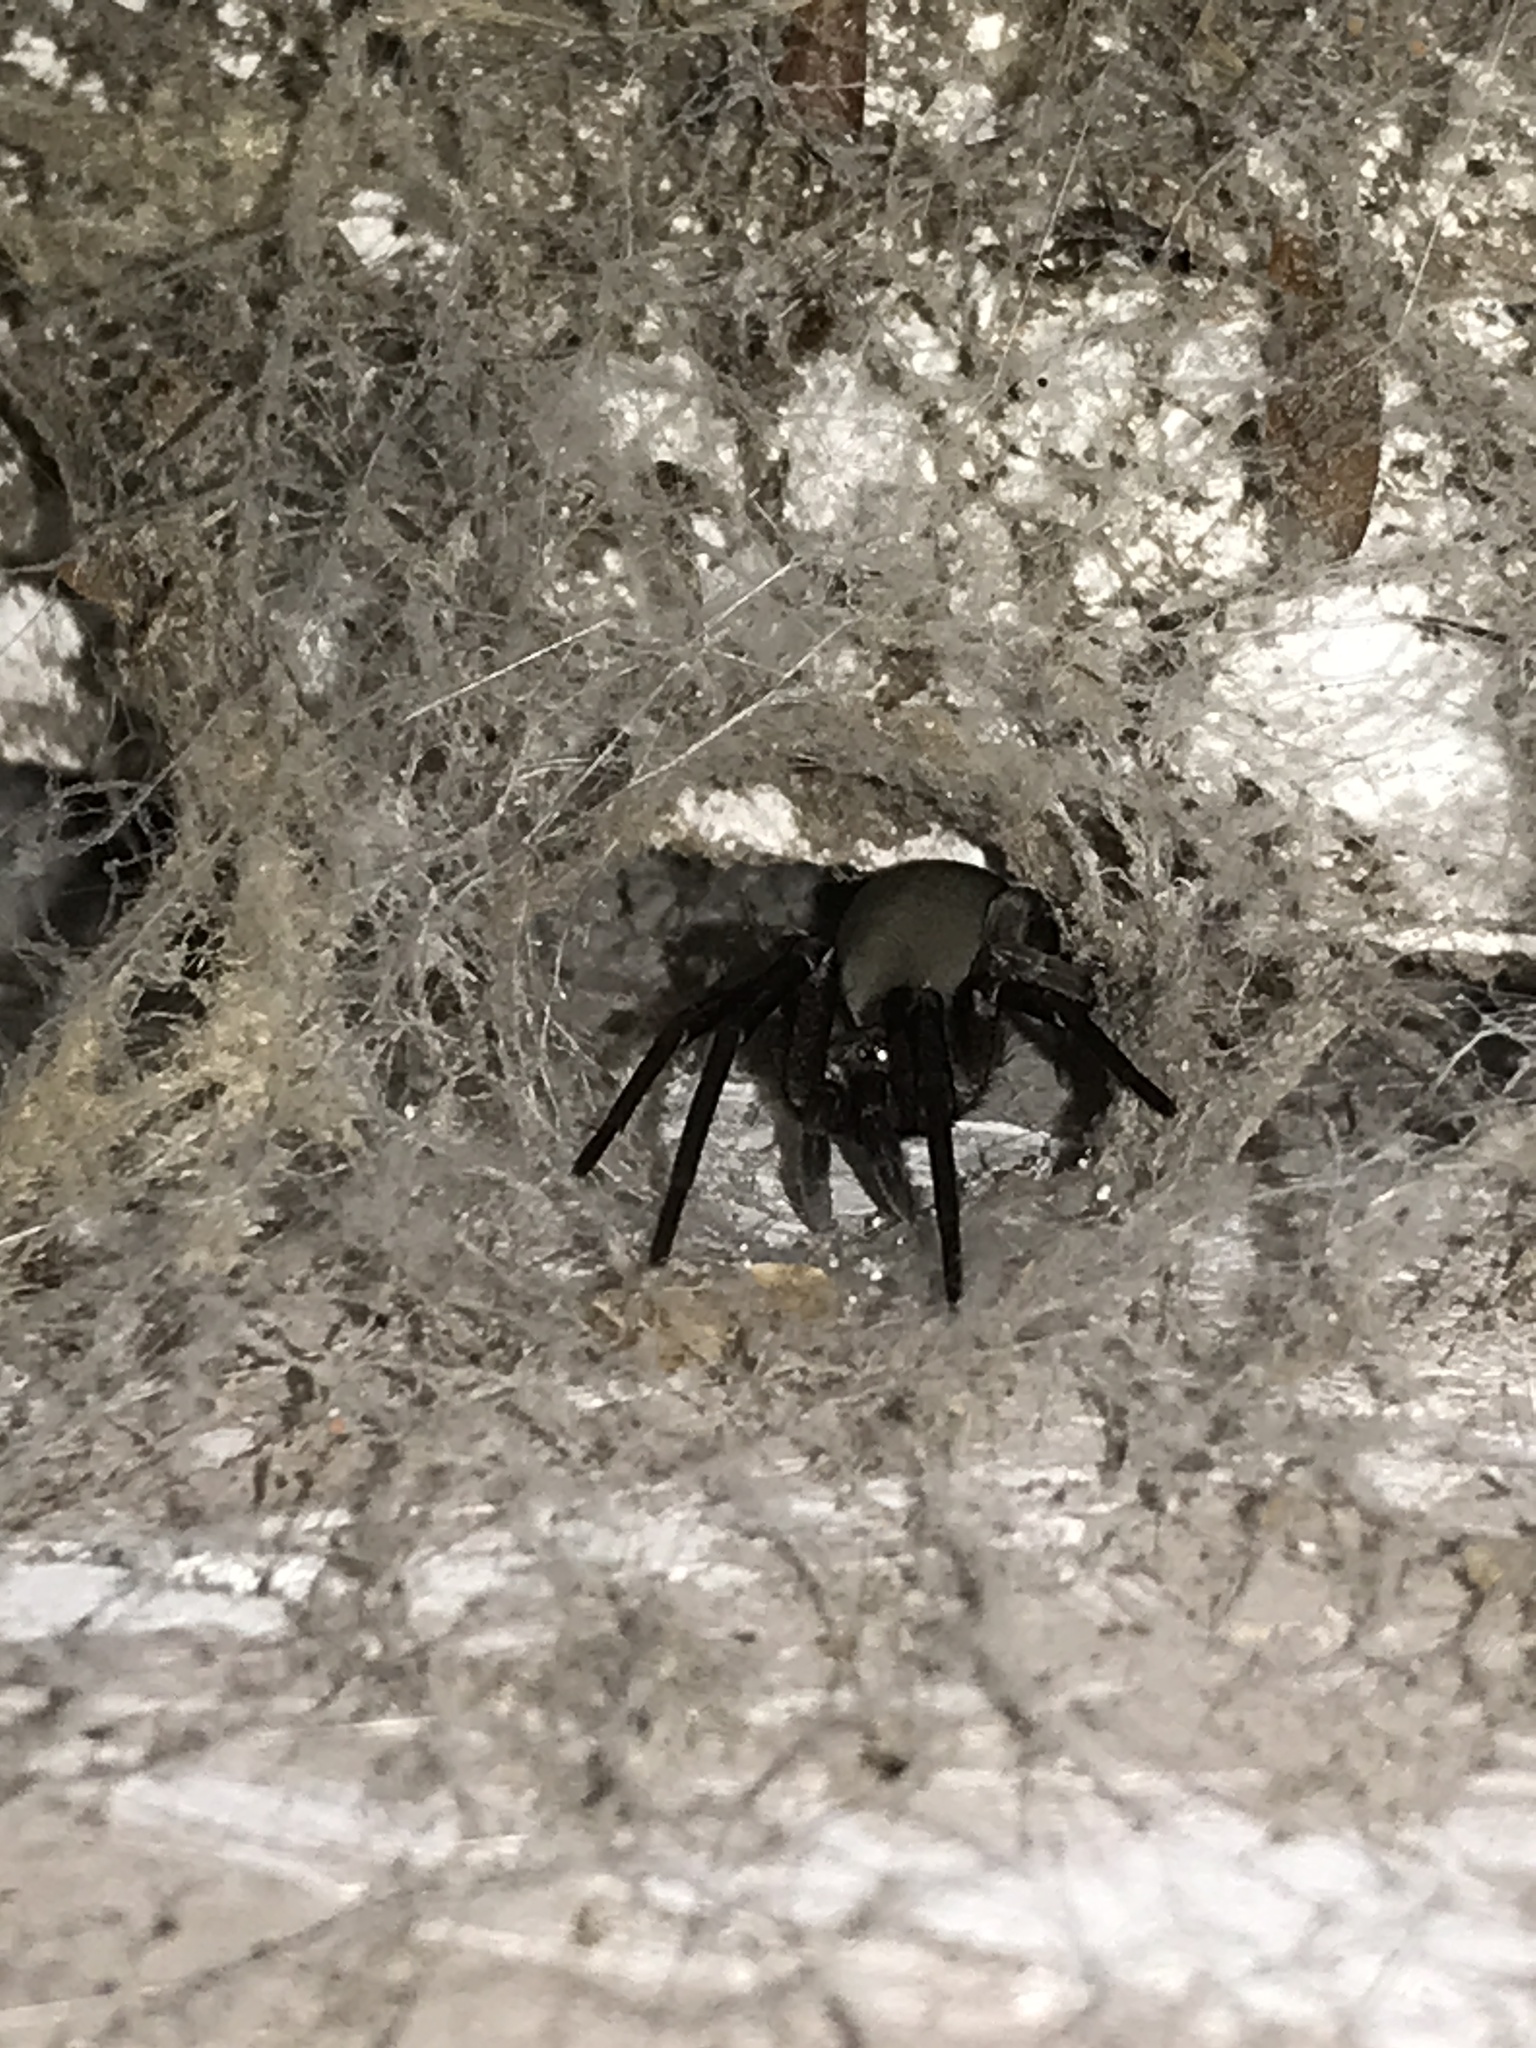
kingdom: Animalia
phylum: Arthropoda
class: Arachnida
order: Araneae
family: Filistatidae
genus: Kukulcania
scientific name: Kukulcania hibernalis
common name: Crevice weaver
